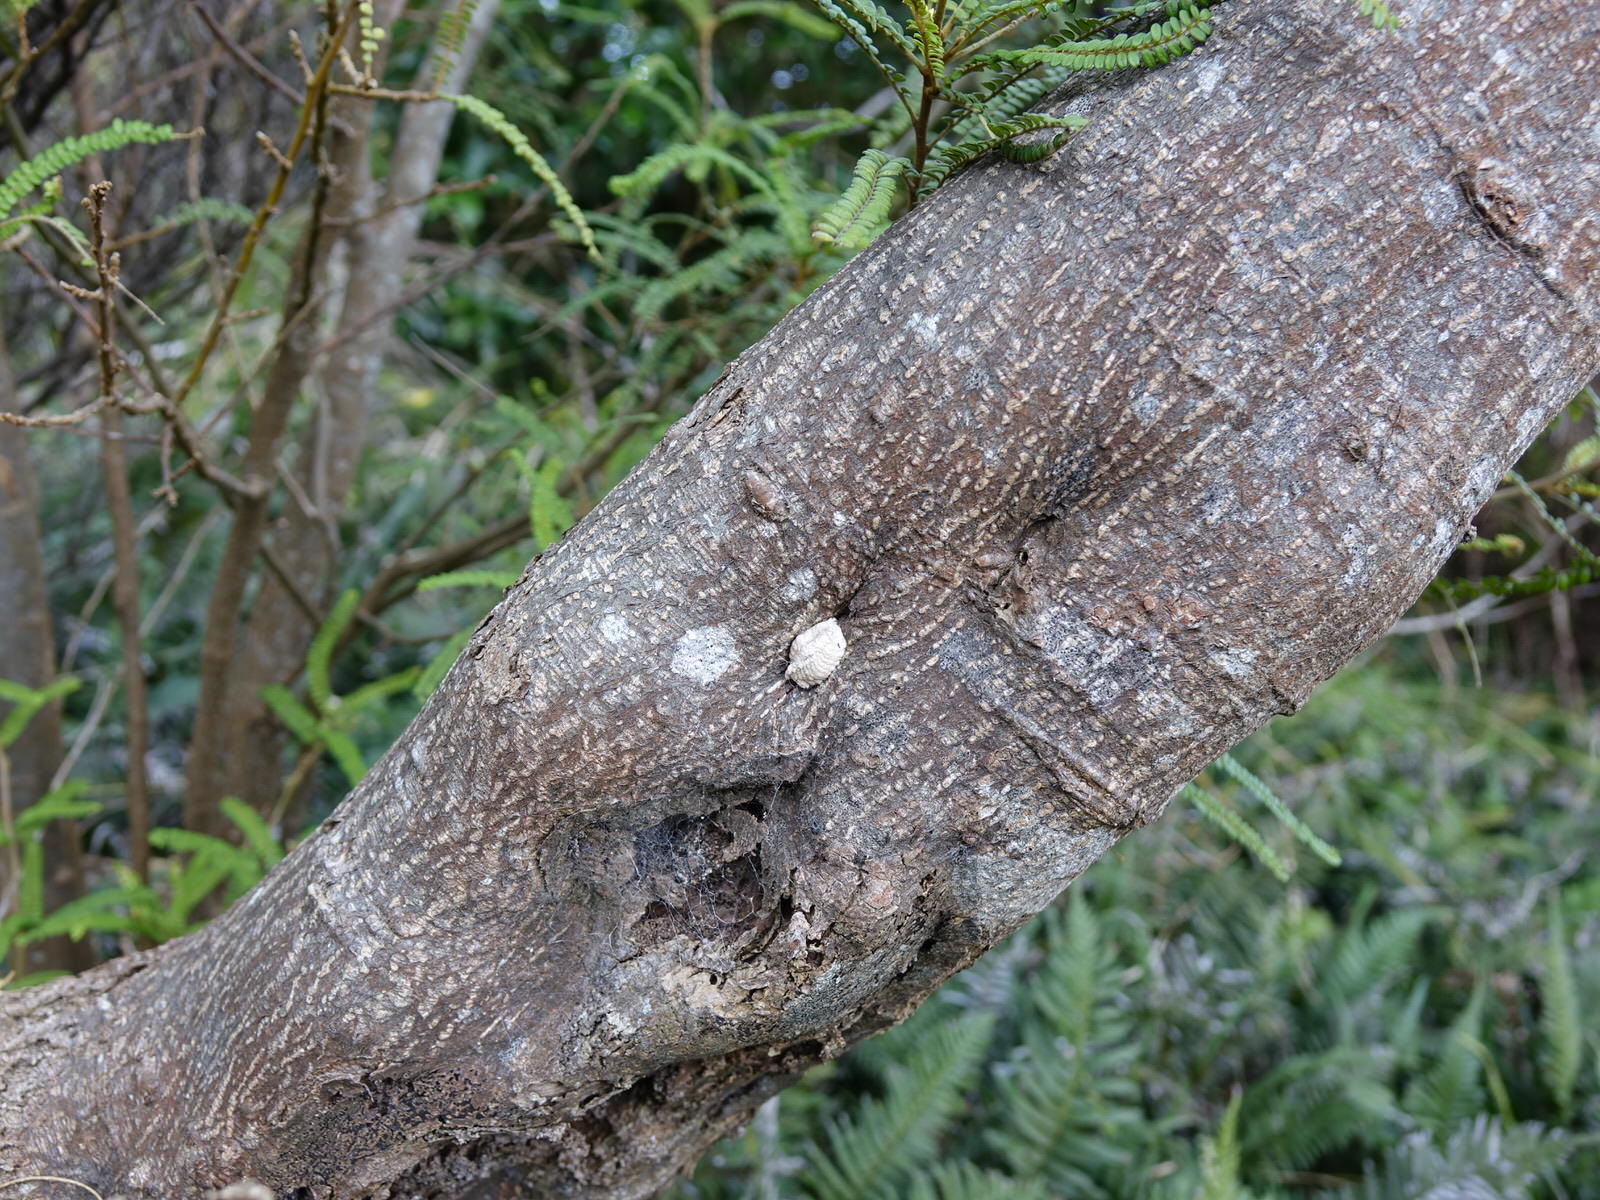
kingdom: Animalia
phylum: Arthropoda
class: Insecta
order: Mantodea
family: Miomantidae
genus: Miomantis
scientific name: Miomantis caffra
